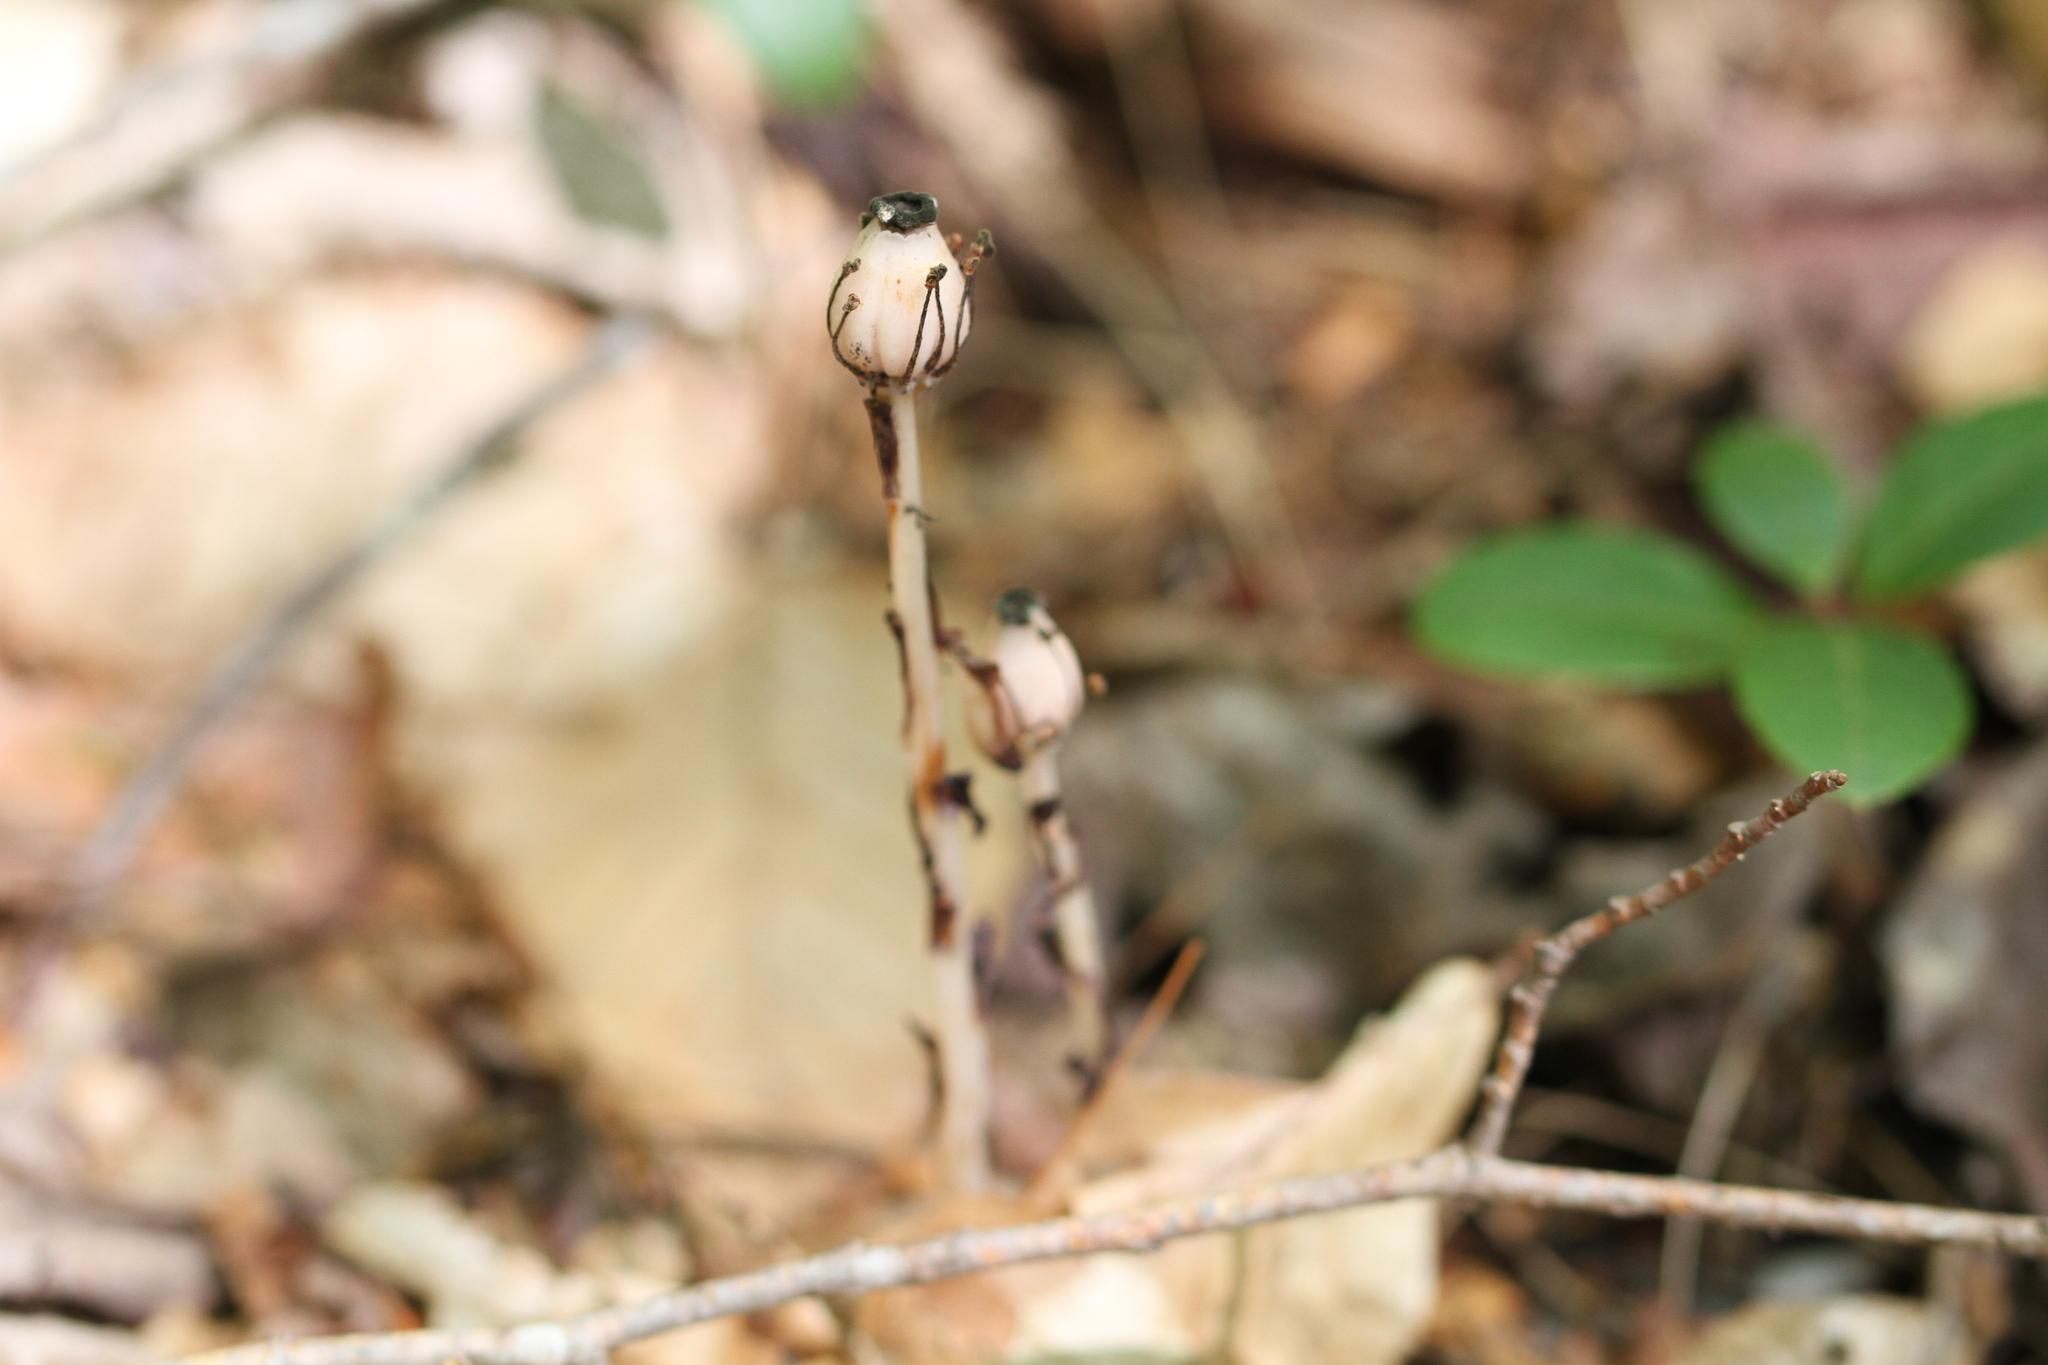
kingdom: Plantae
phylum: Tracheophyta
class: Magnoliopsida
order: Ericales
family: Ericaceae
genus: Monotropa
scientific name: Monotropa uniflora
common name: Convulsion root
